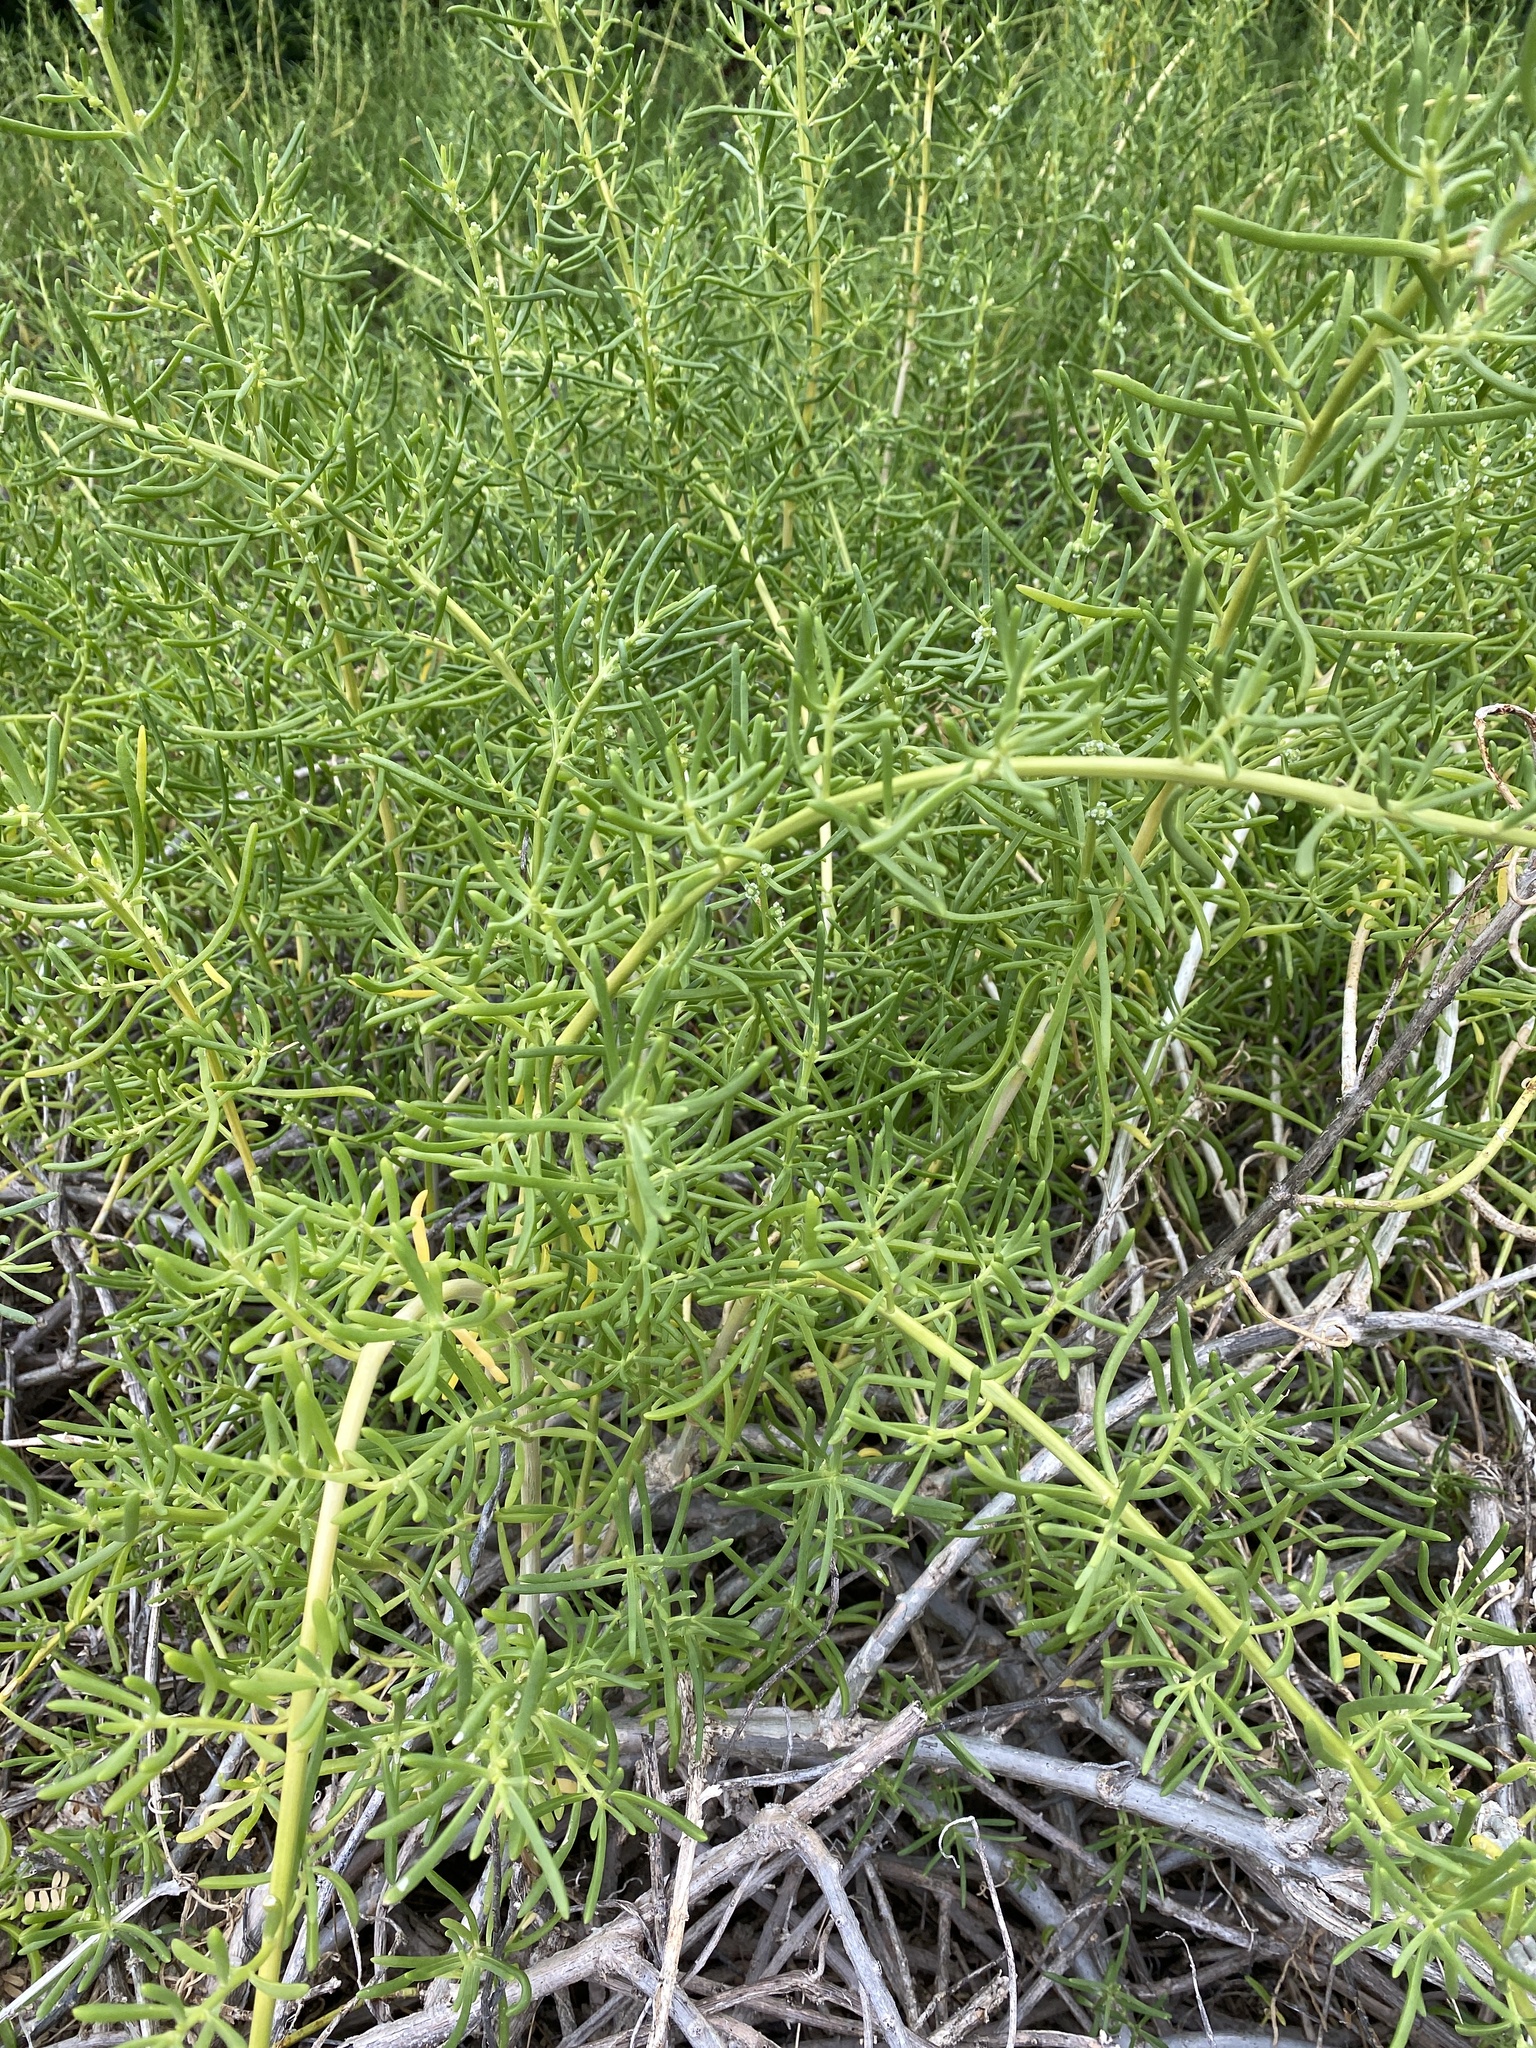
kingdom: Plantae
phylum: Tracheophyta
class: Magnoliopsida
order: Brassicales
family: Bataceae
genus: Batis
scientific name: Batis maritima
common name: Turtleweed
